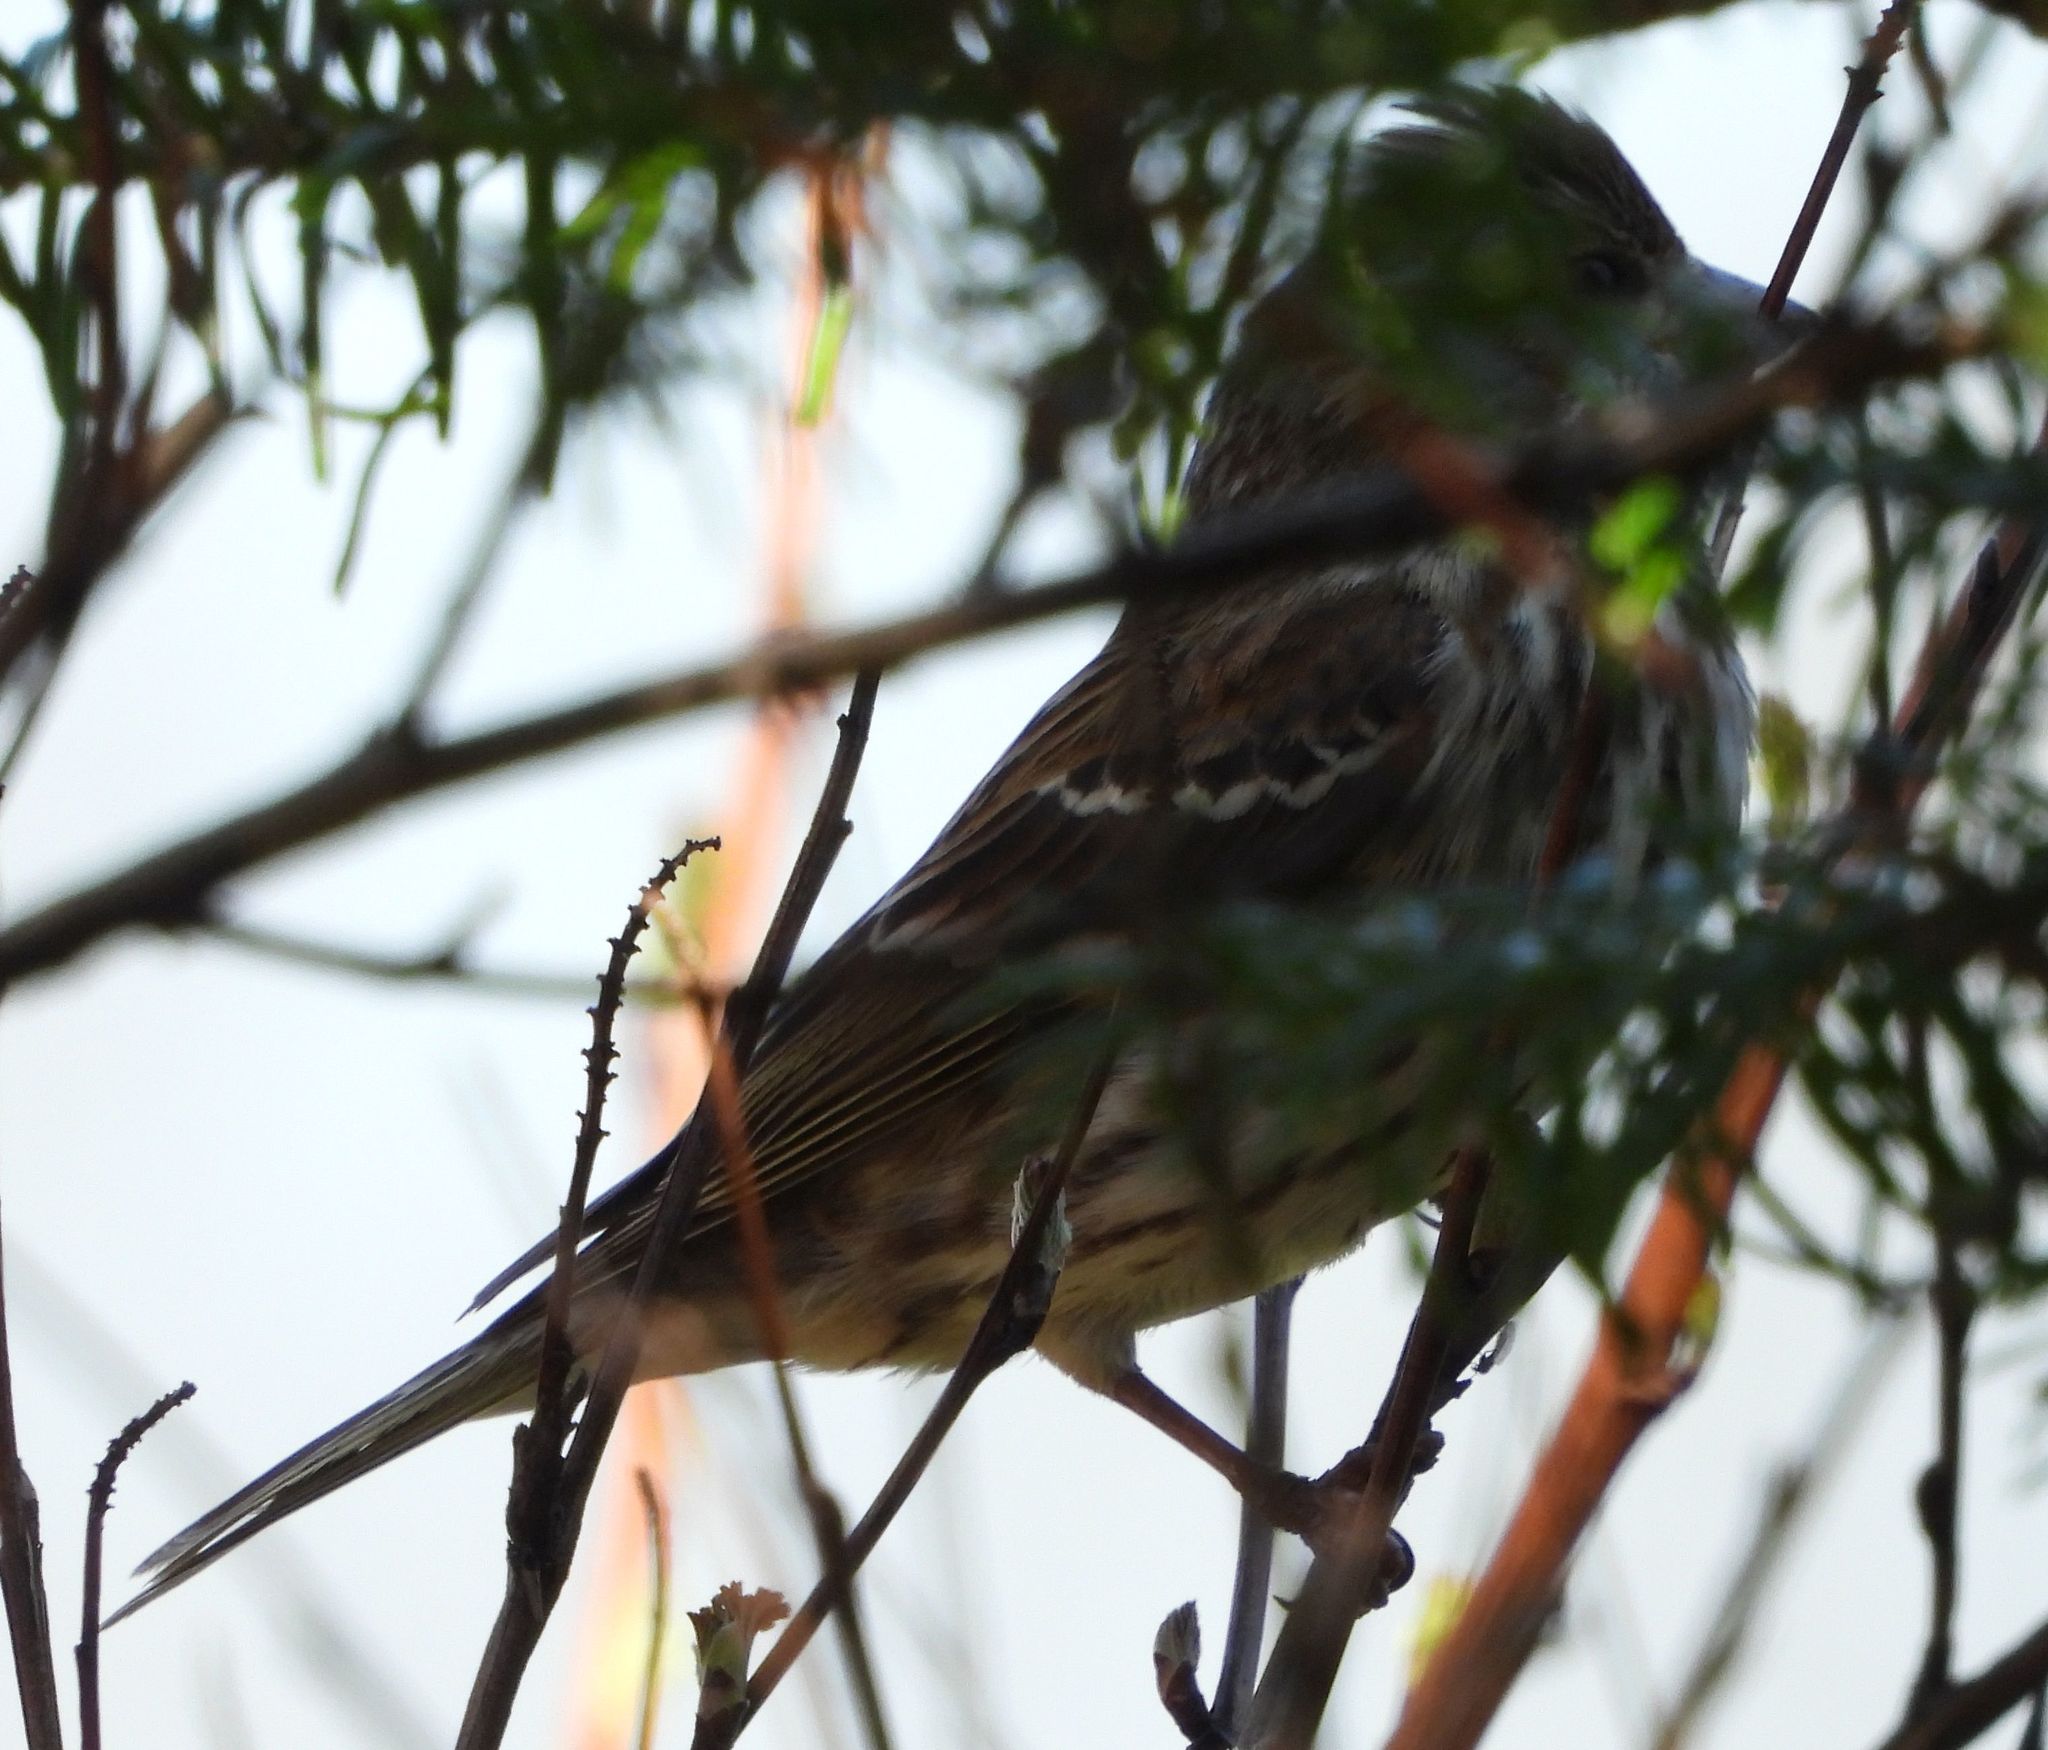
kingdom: Animalia
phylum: Chordata
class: Aves
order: Passeriformes
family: Fringillidae
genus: Haemorhous
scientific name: Haemorhous purpureus
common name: Purple finch
